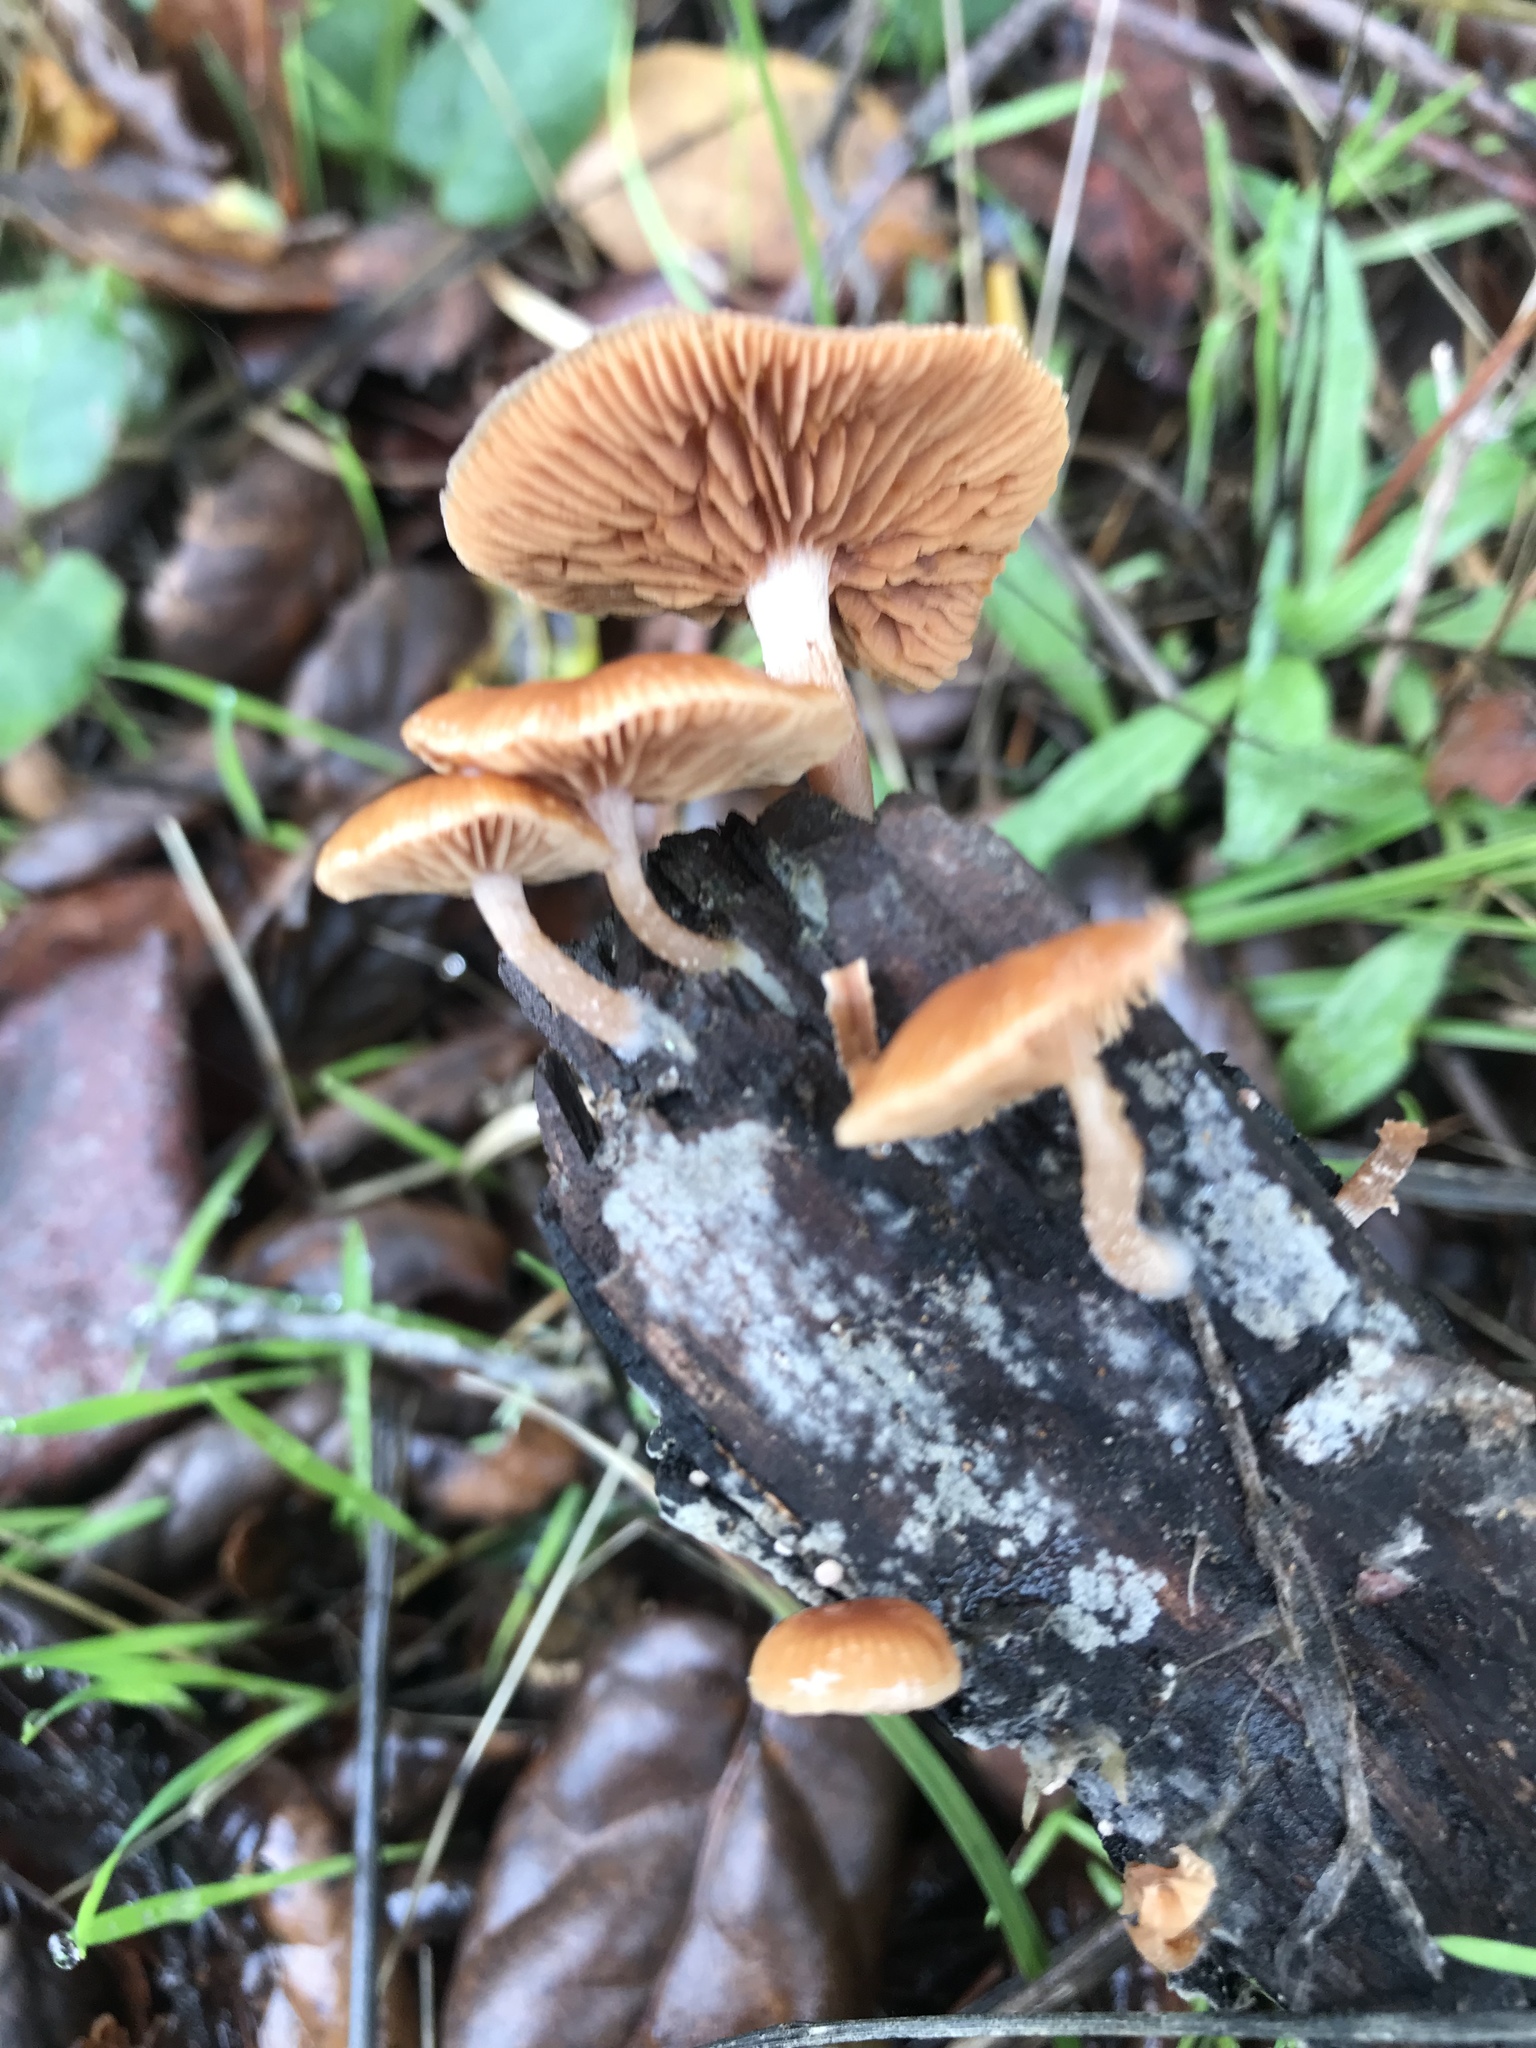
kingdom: Fungi
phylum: Basidiomycota
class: Agaricomycetes
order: Agaricales
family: Tubariaceae
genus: Tubaria
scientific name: Tubaria furfuracea
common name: Scurfy twiglet
